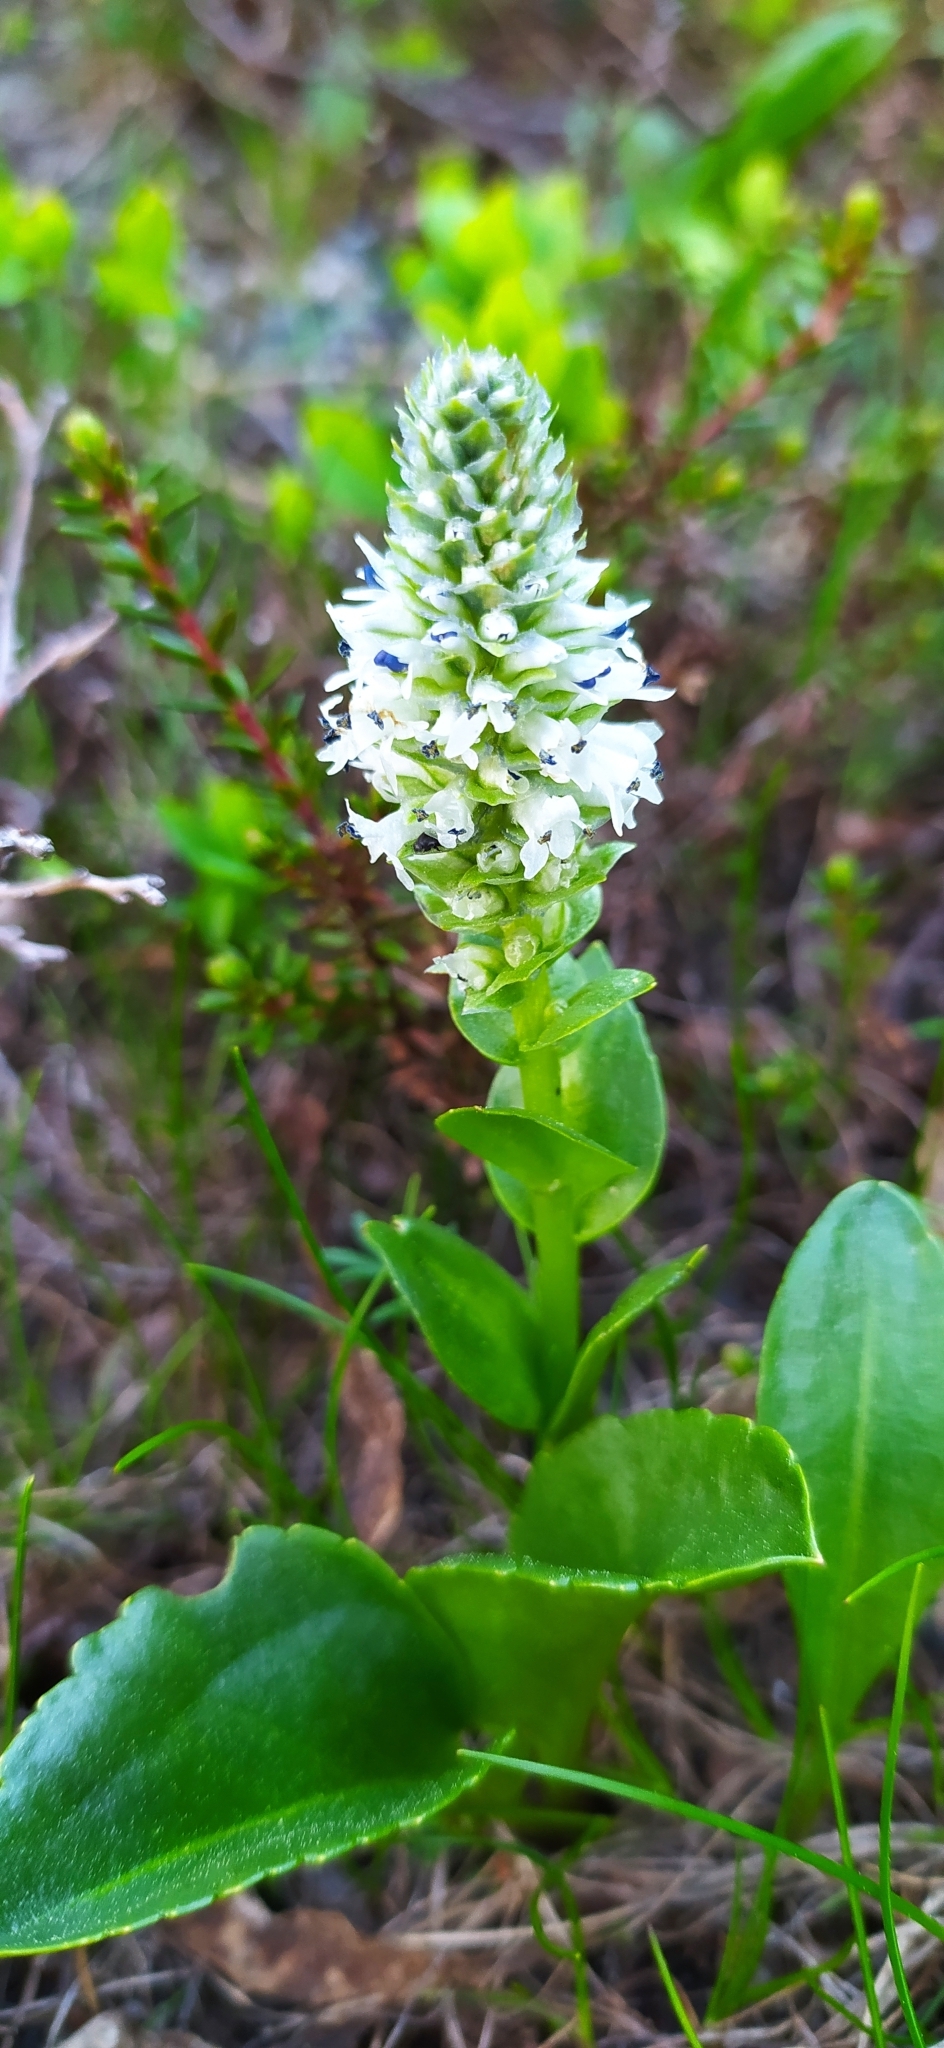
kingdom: Plantae
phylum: Tracheophyta
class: Magnoliopsida
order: Lamiales
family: Plantaginaceae
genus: Lagotis
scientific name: Lagotis uralensis
